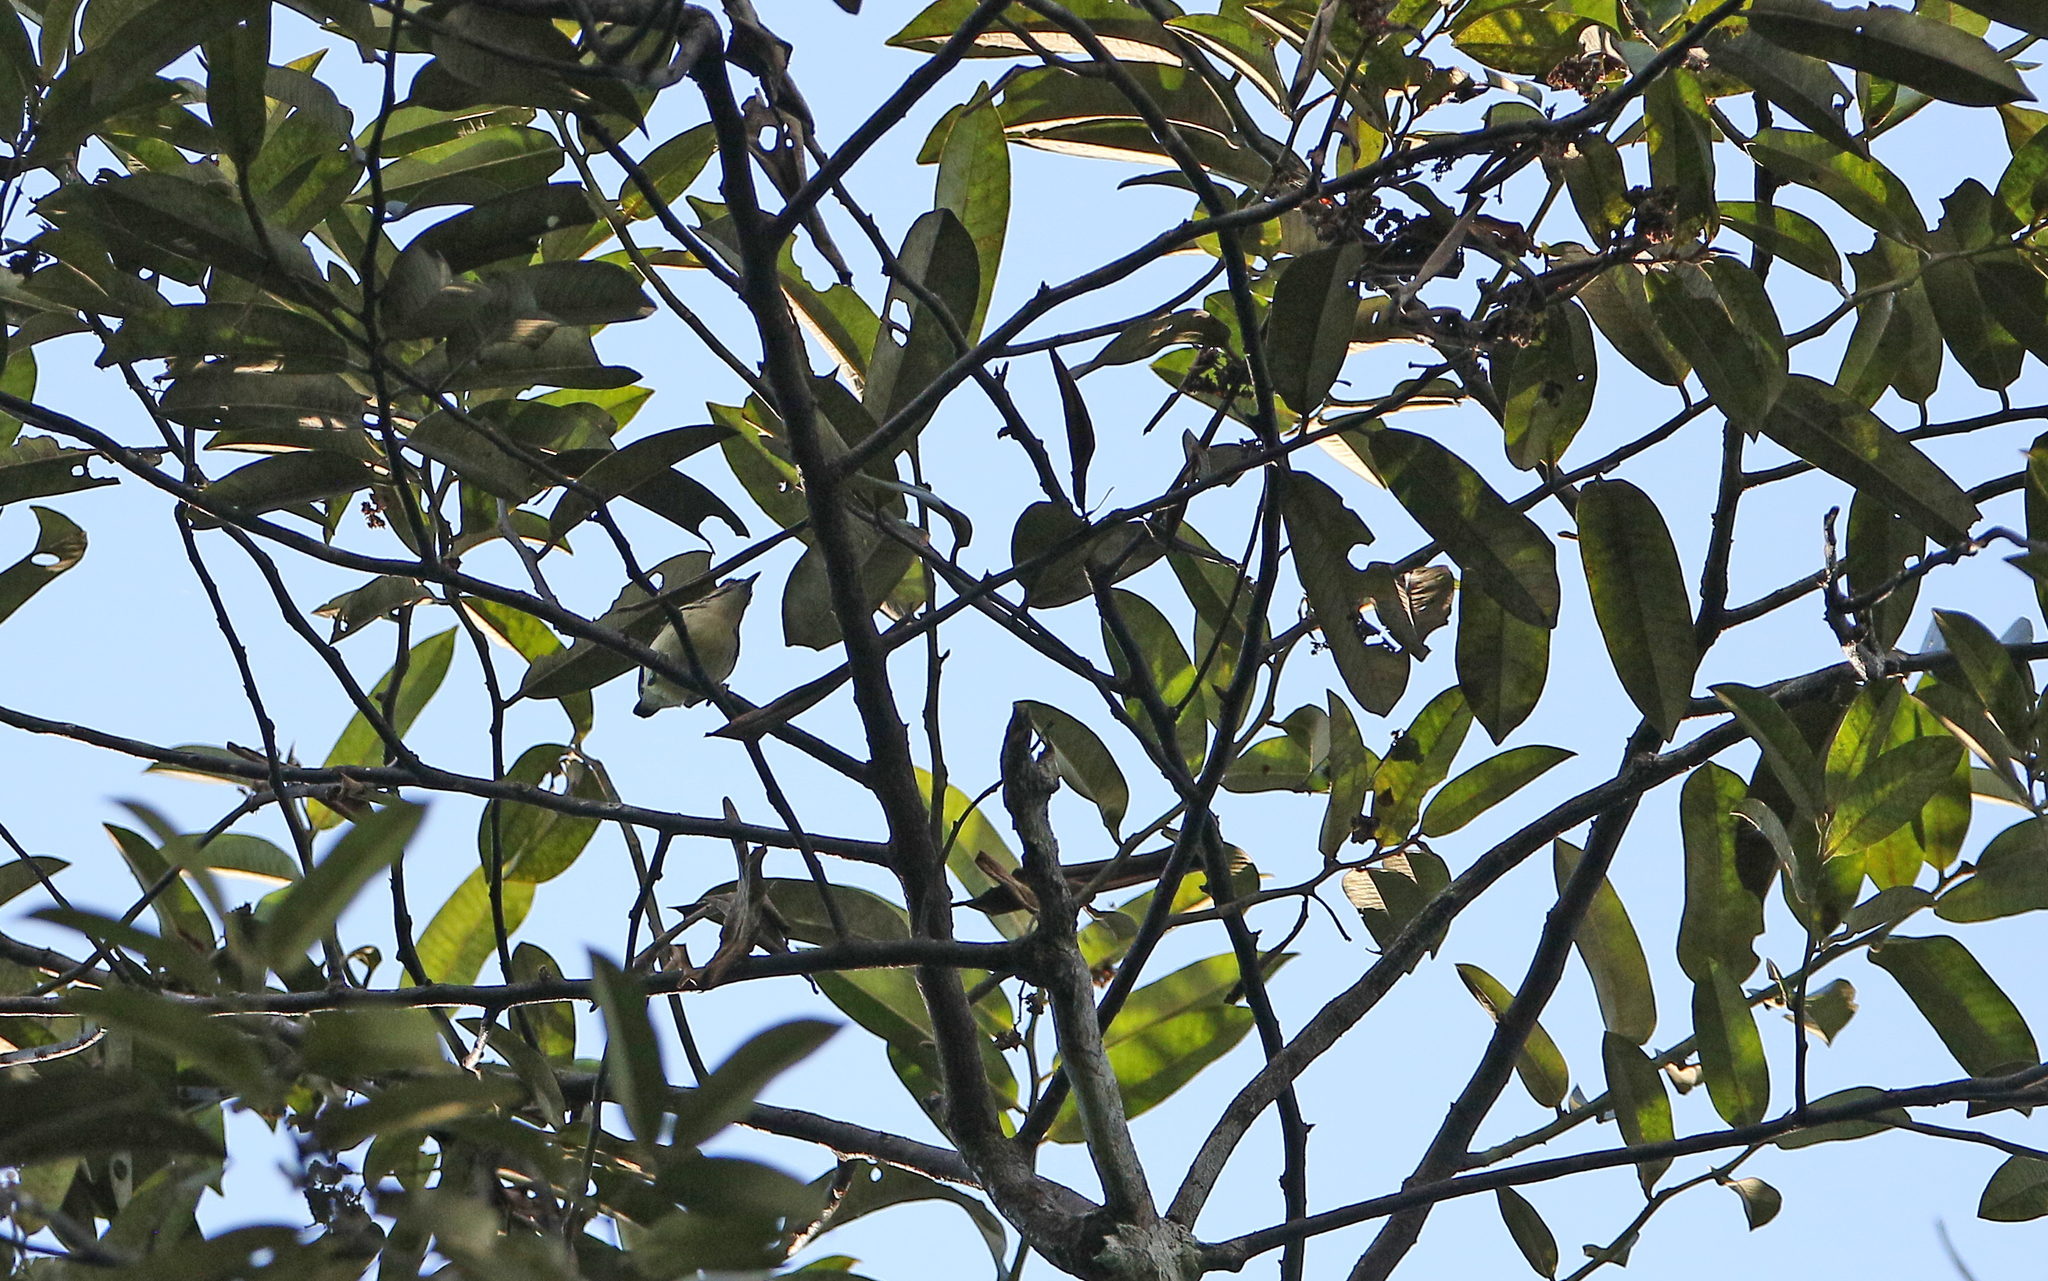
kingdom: Animalia
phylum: Chordata
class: Aves
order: Passeriformes
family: Thamnophilidae
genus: Myrmotherula
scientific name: Myrmotherula ignota
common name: Moustached antwren
